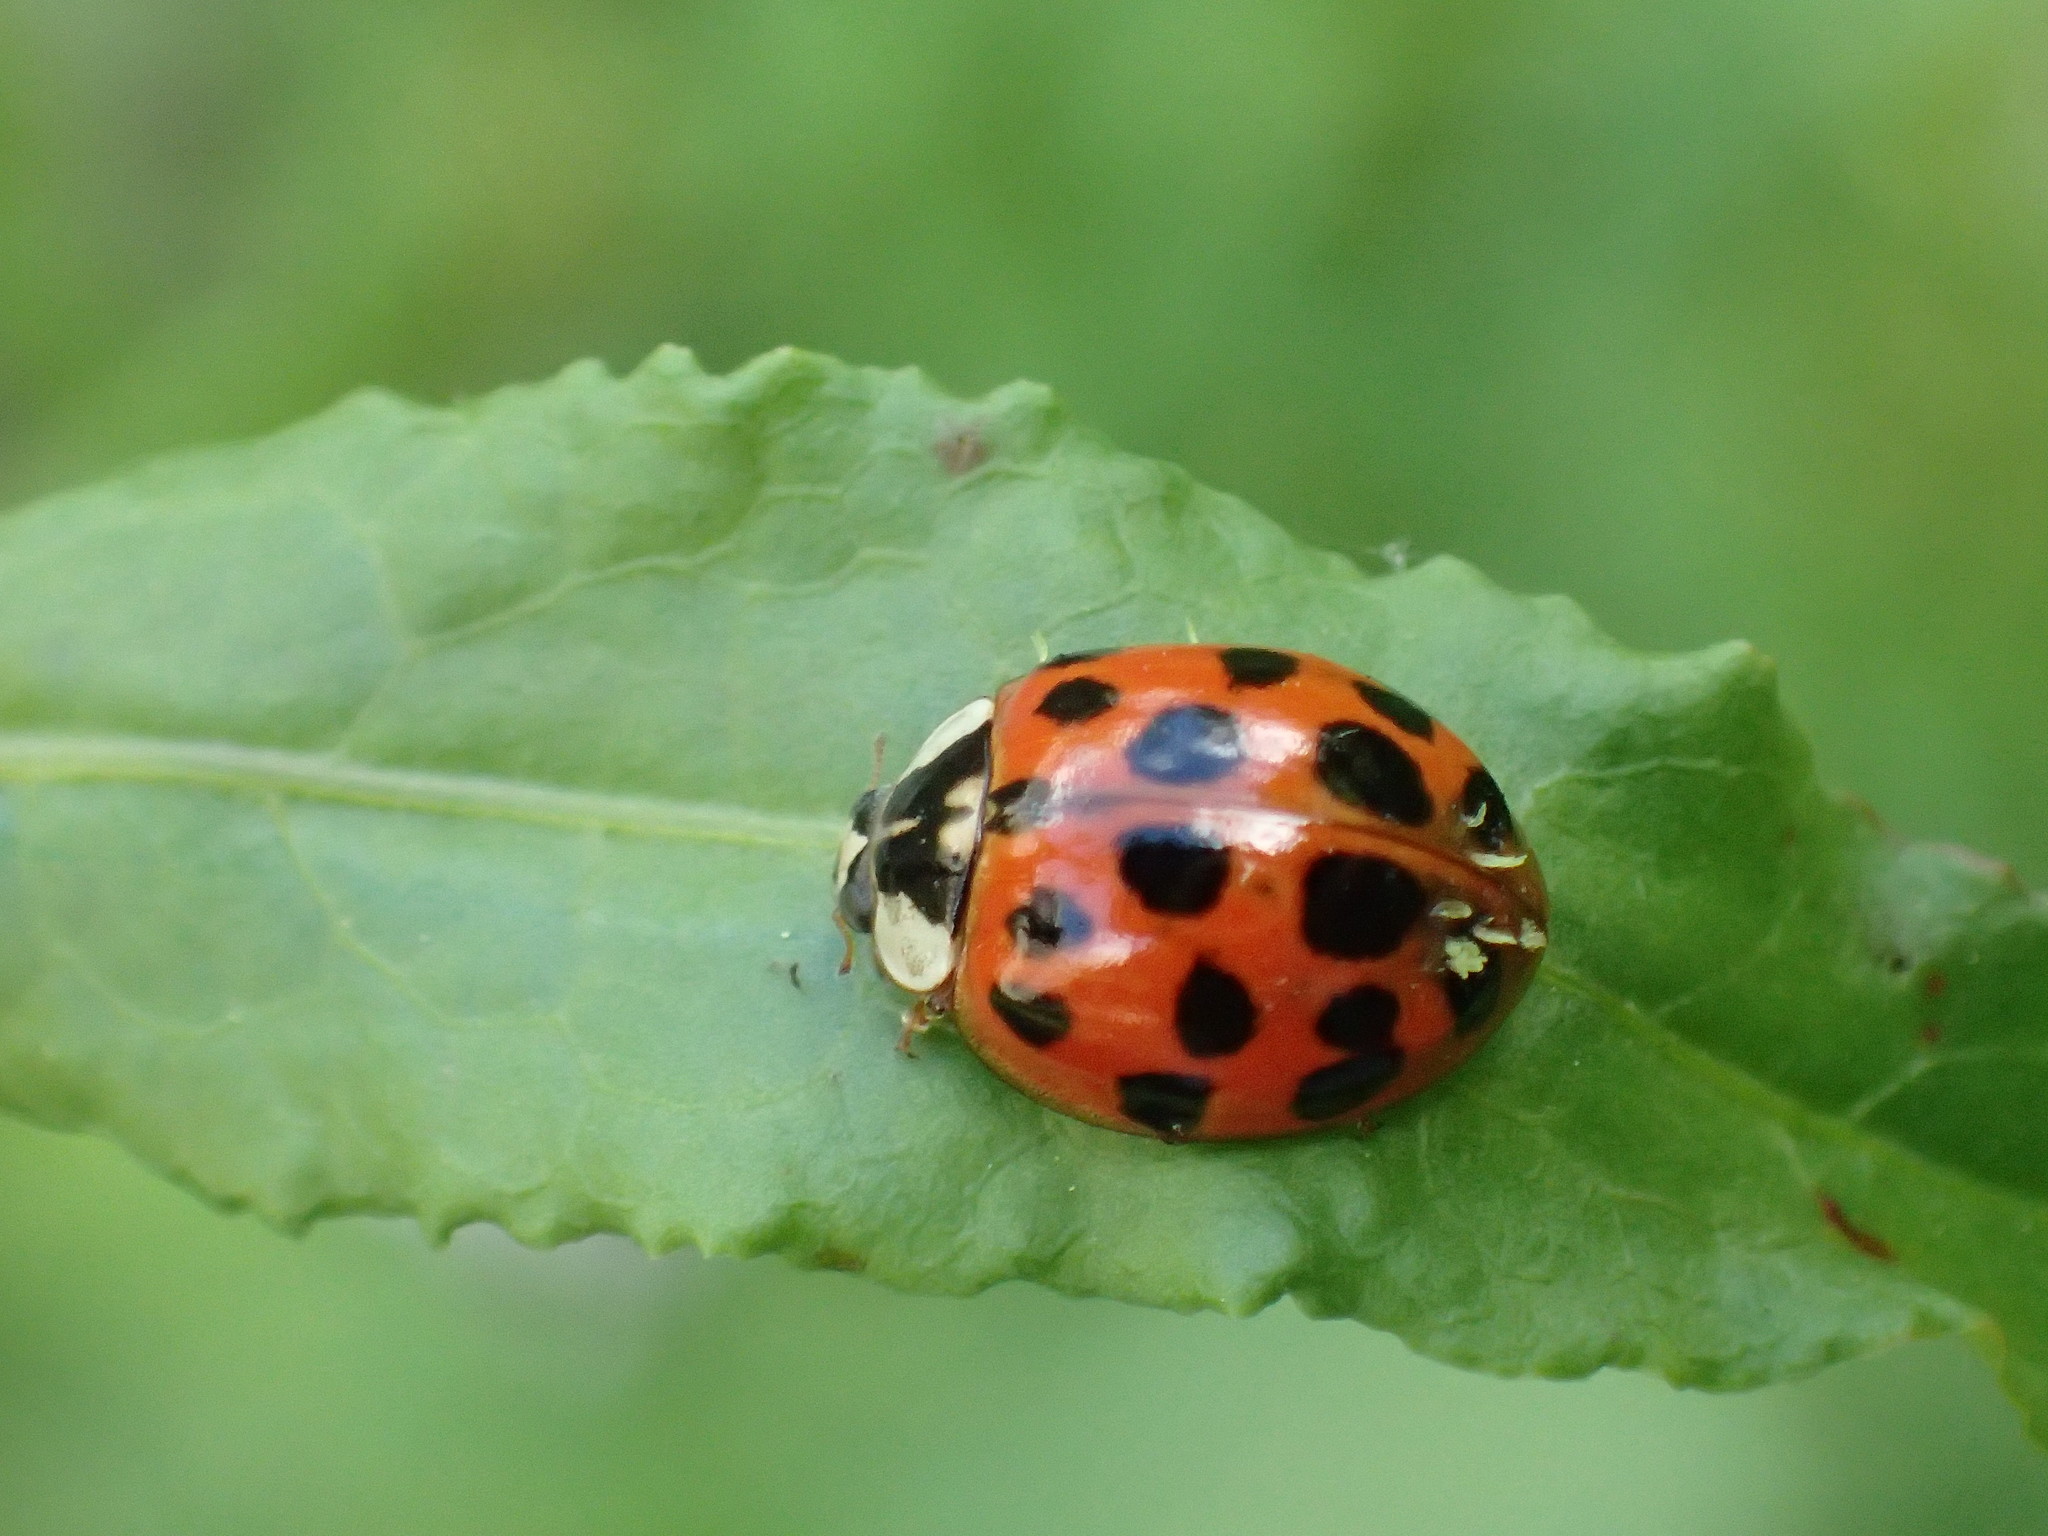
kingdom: Animalia
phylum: Arthropoda
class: Insecta
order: Coleoptera
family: Coccinellidae
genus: Harmonia
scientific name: Harmonia axyridis
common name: Harlequin ladybird
